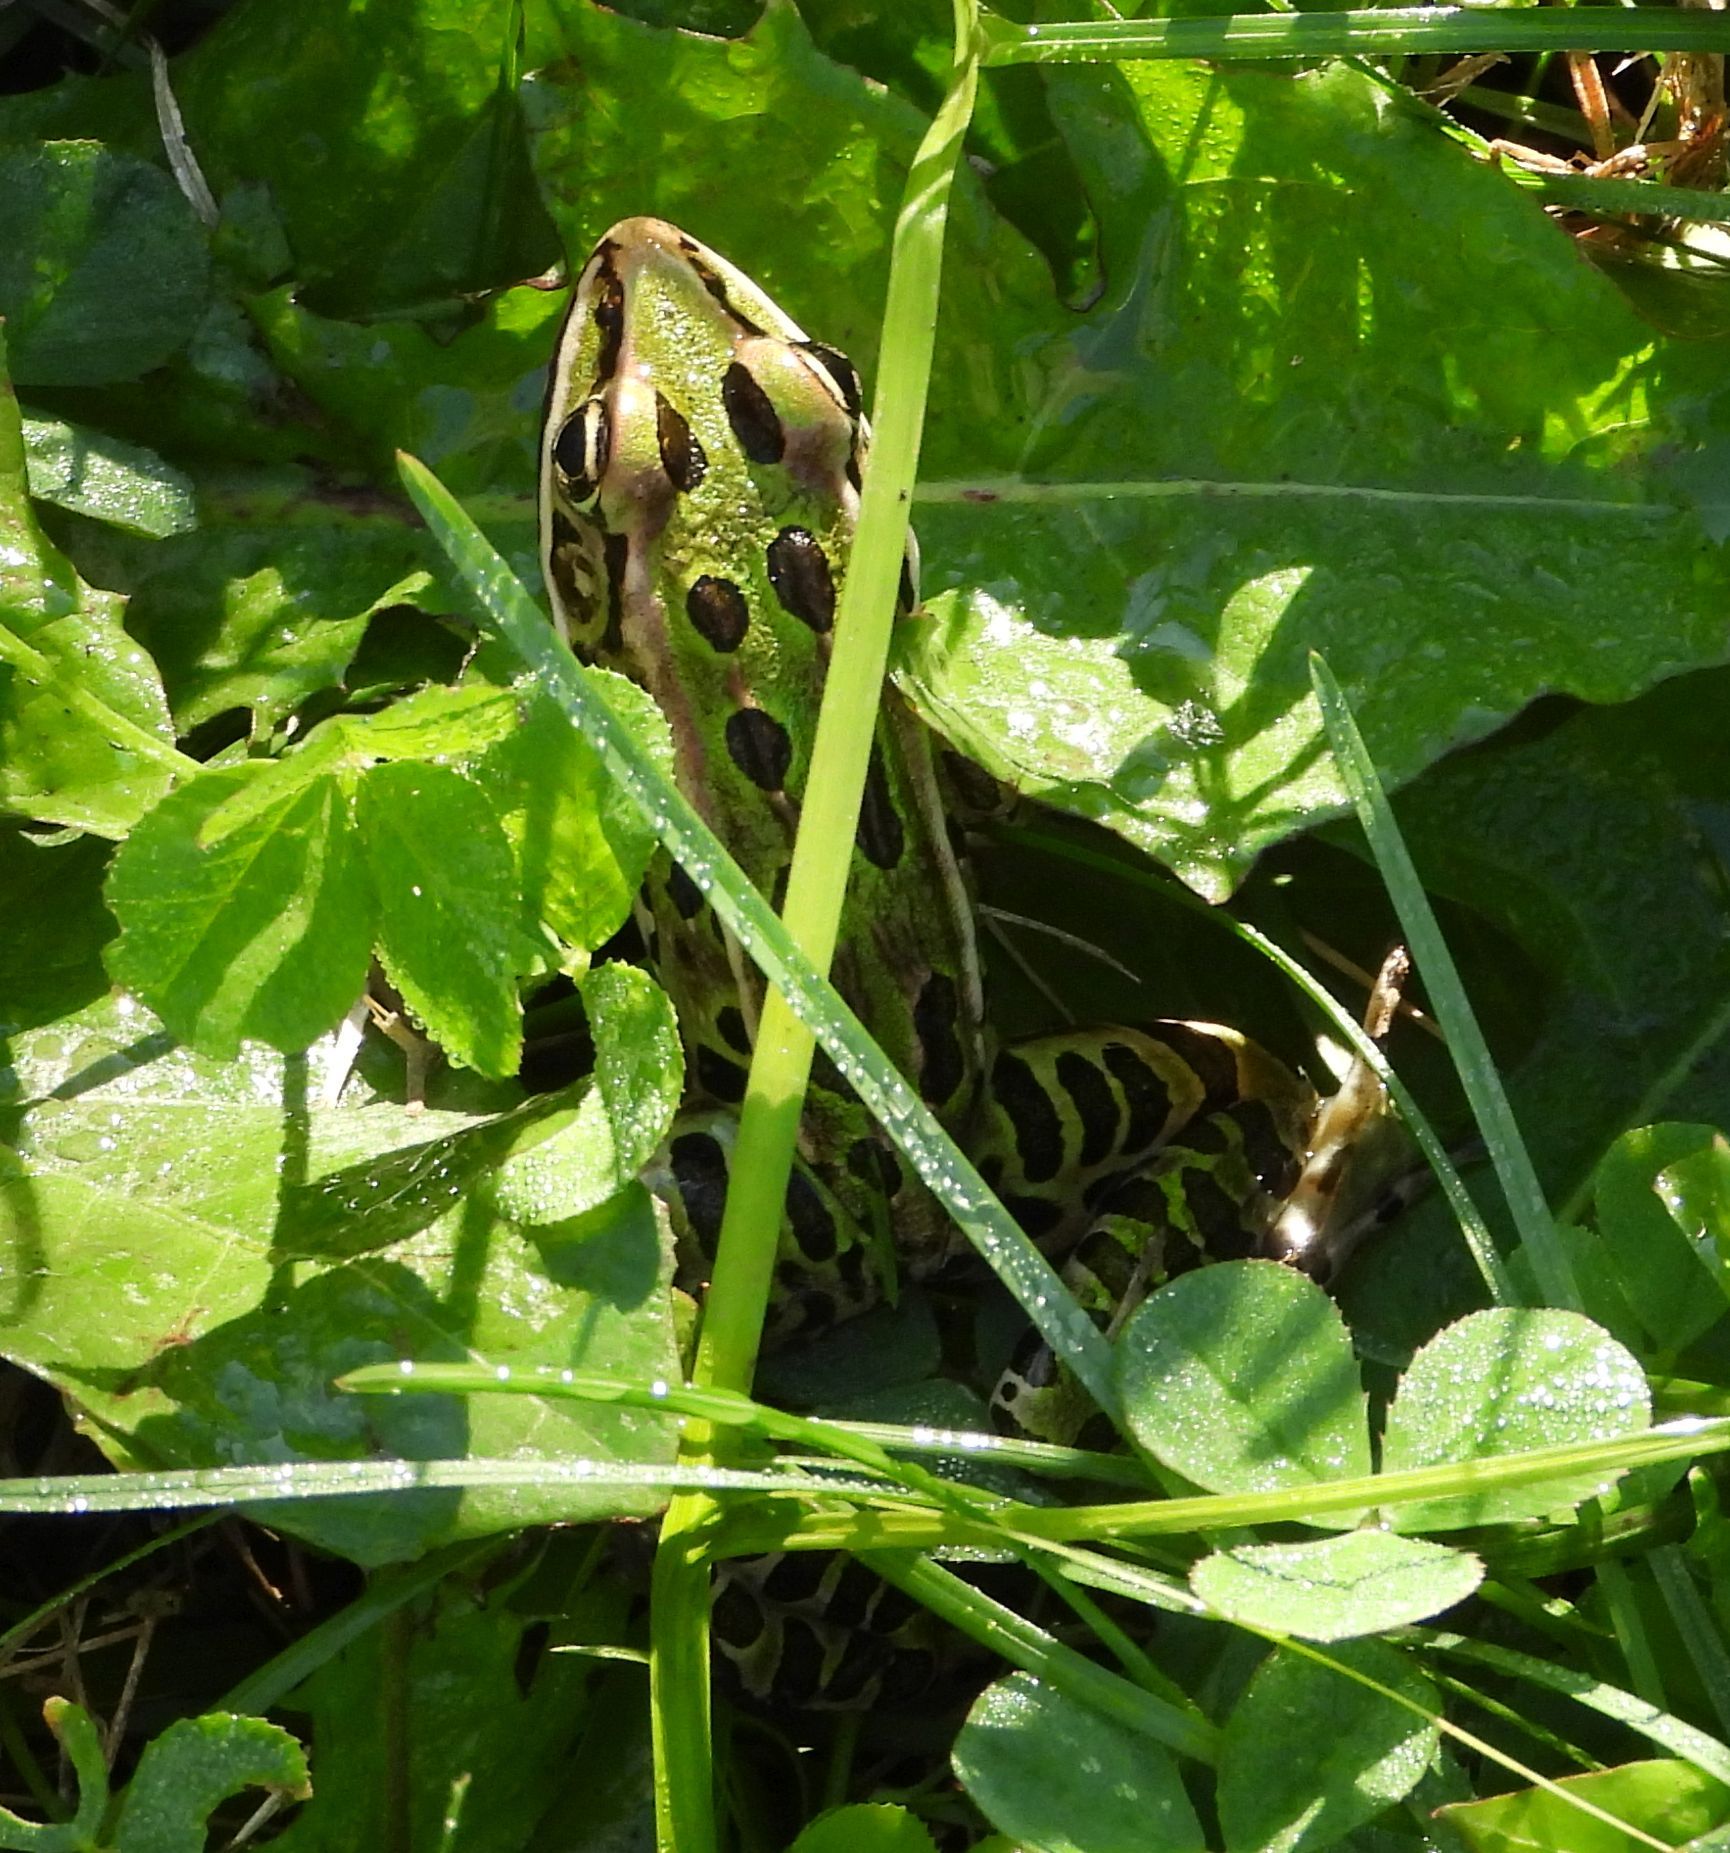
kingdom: Animalia
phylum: Chordata
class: Amphibia
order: Anura
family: Ranidae
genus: Lithobates
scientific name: Lithobates pipiens
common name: Northern leopard frog
